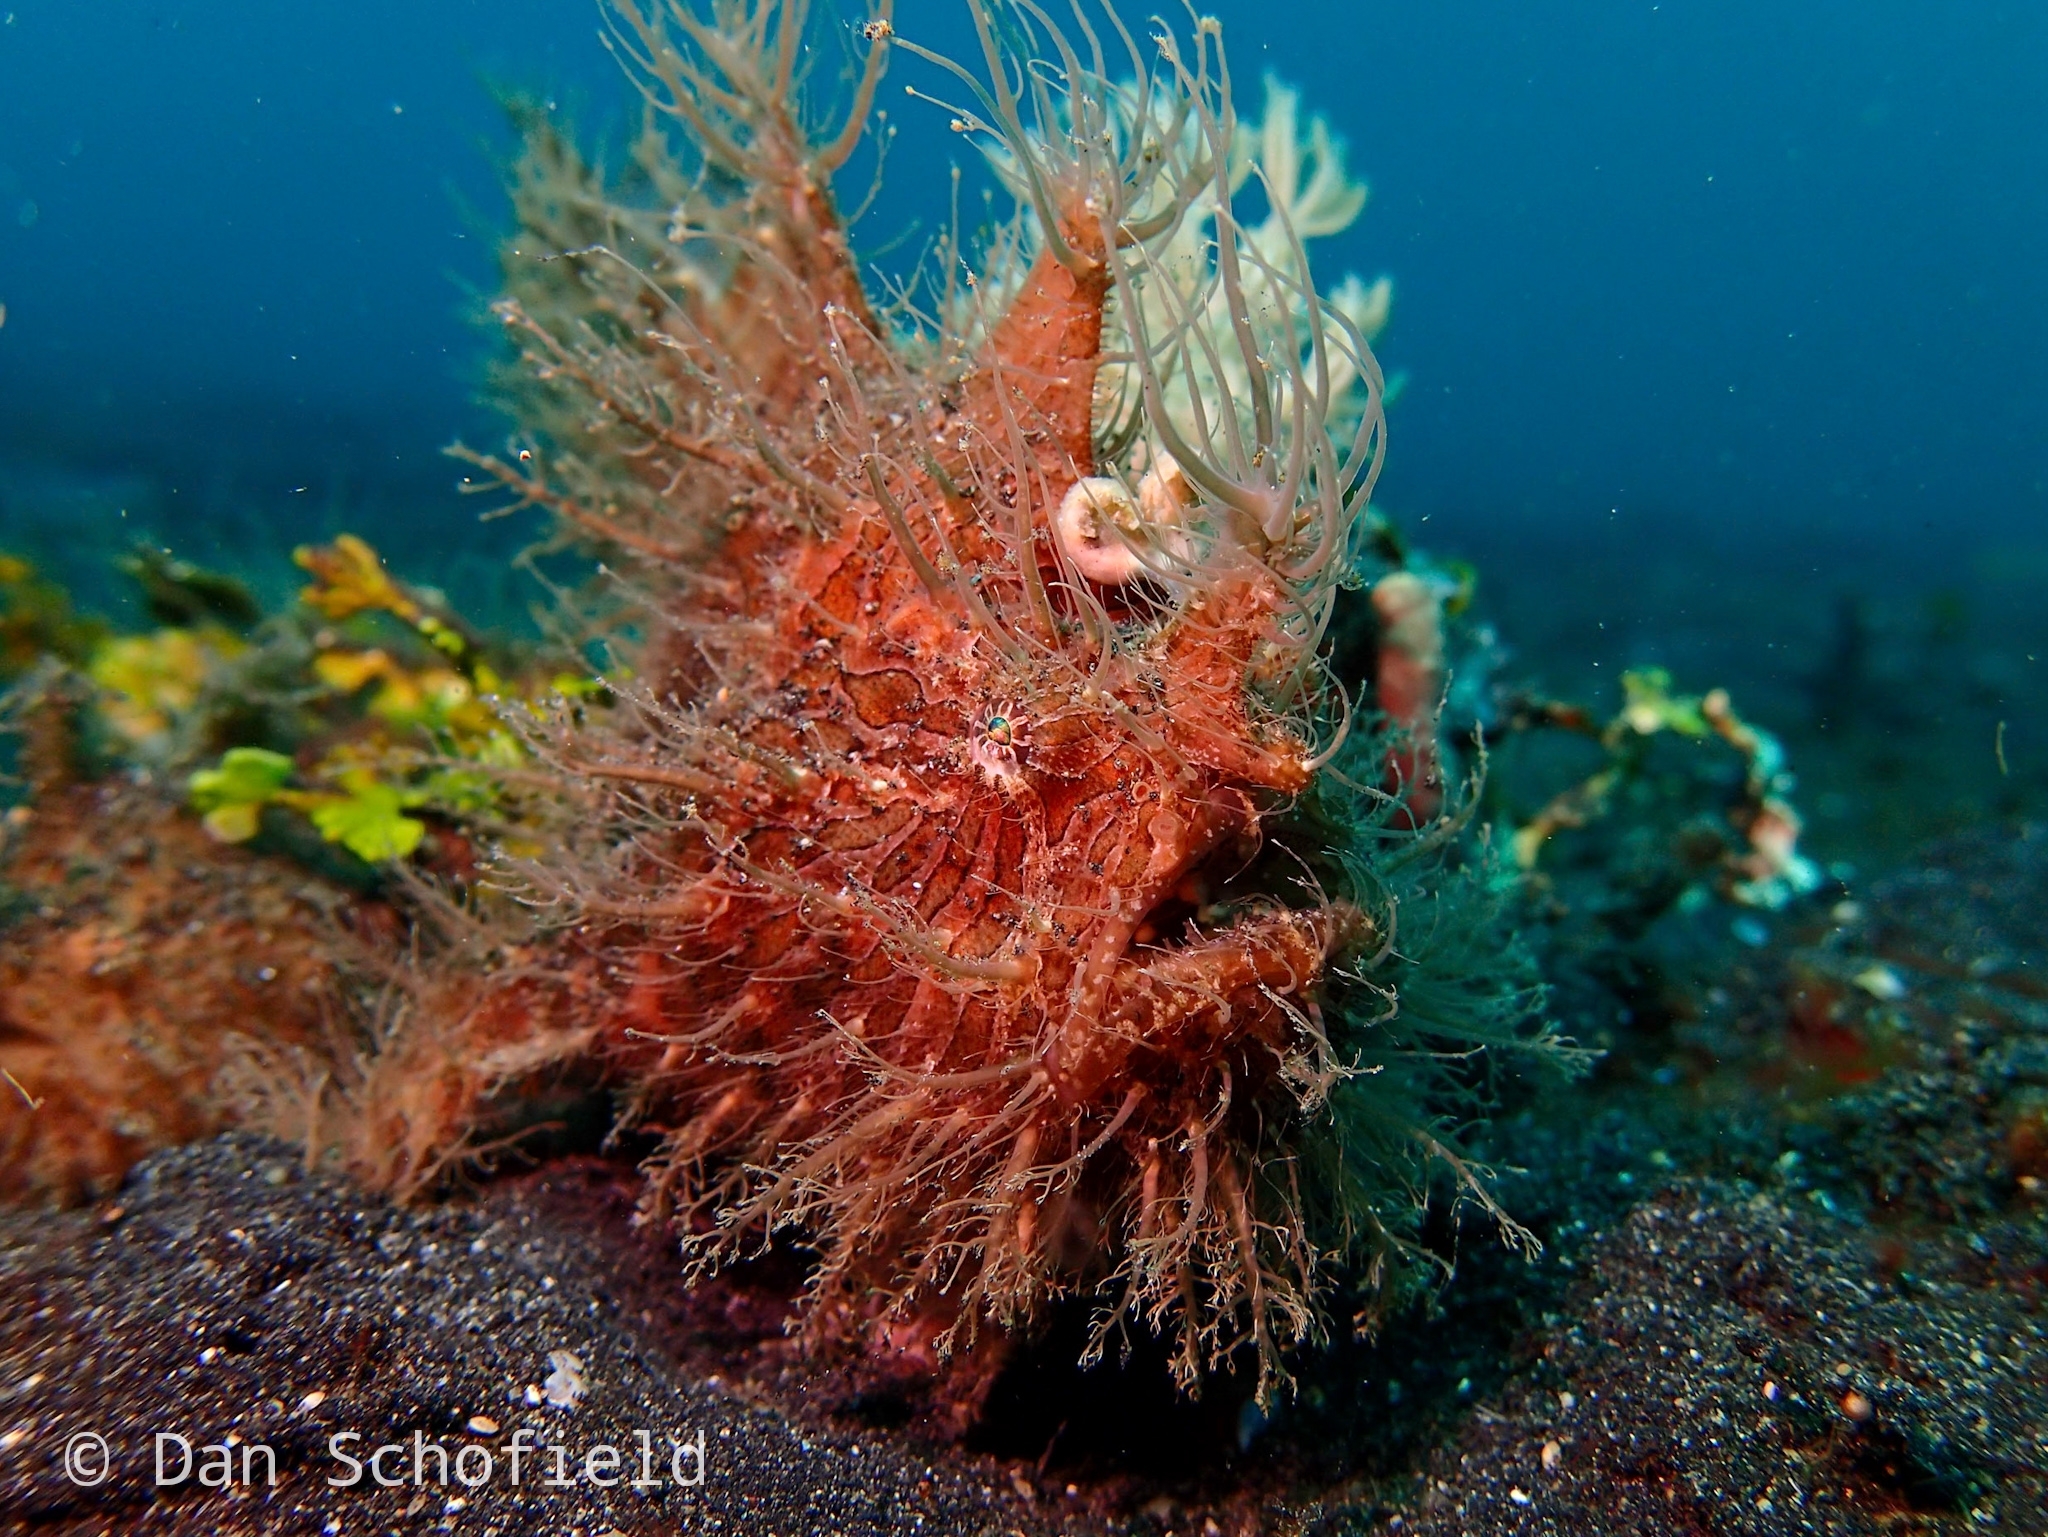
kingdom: Animalia
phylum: Chordata
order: Lophiiformes
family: Antennariidae
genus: Antennarius
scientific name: Antennarius striatus
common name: Striated frogfish
